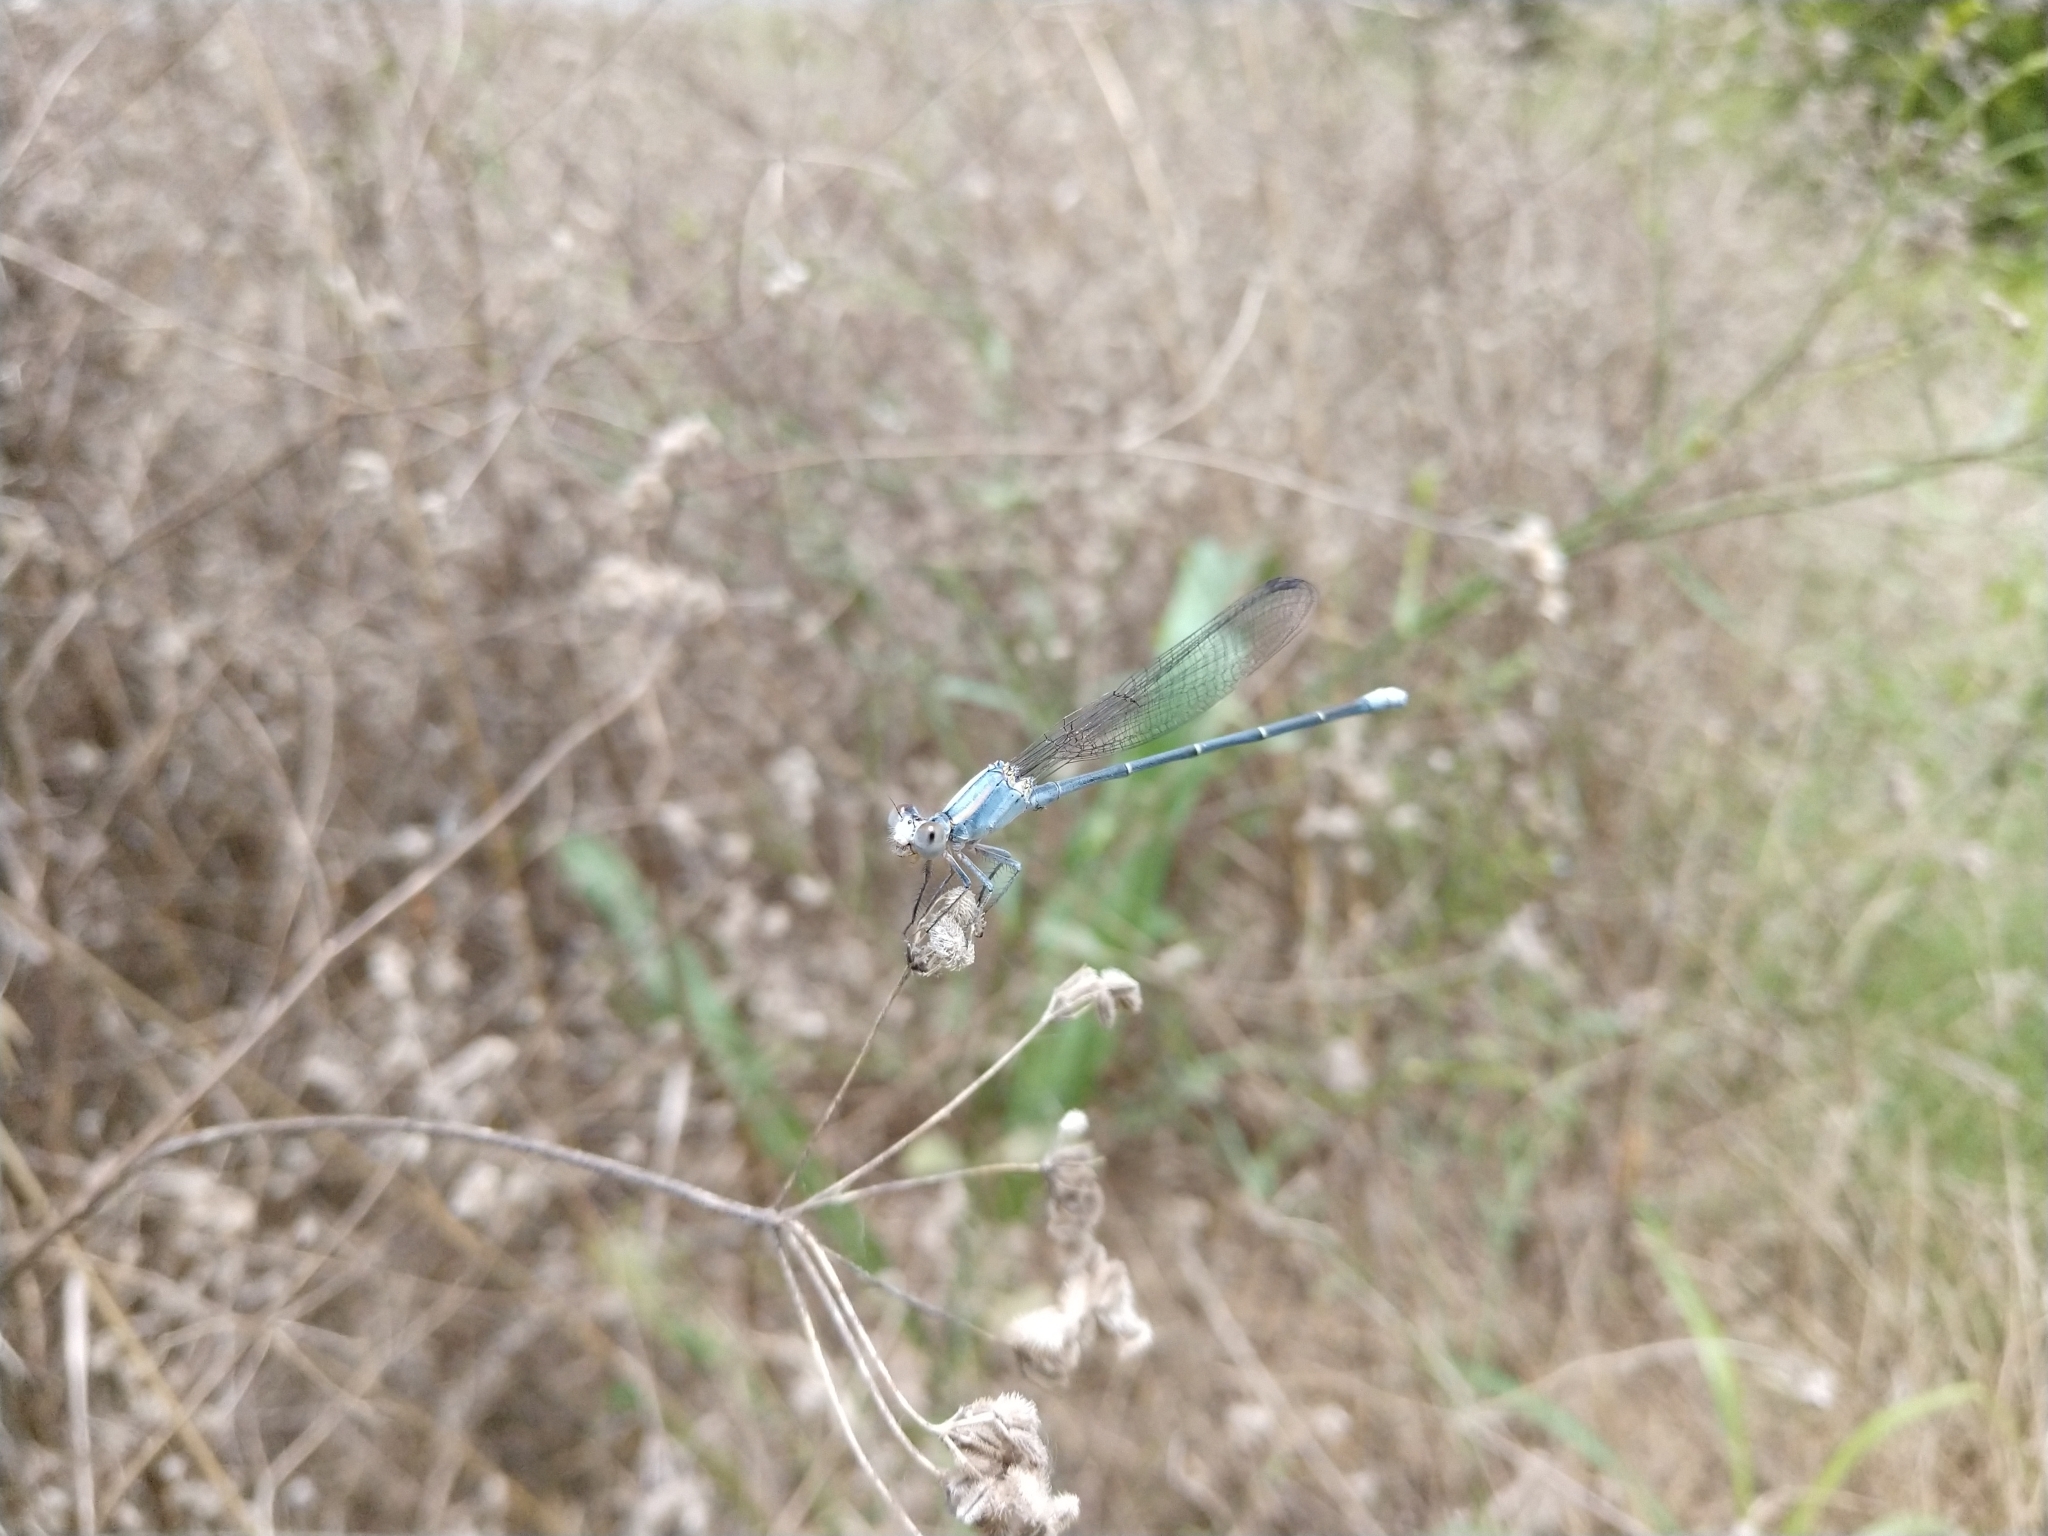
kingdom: Animalia
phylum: Arthropoda
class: Insecta
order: Odonata
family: Coenagrionidae
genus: Argia
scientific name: Argia moesta
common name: Powdered dancer
